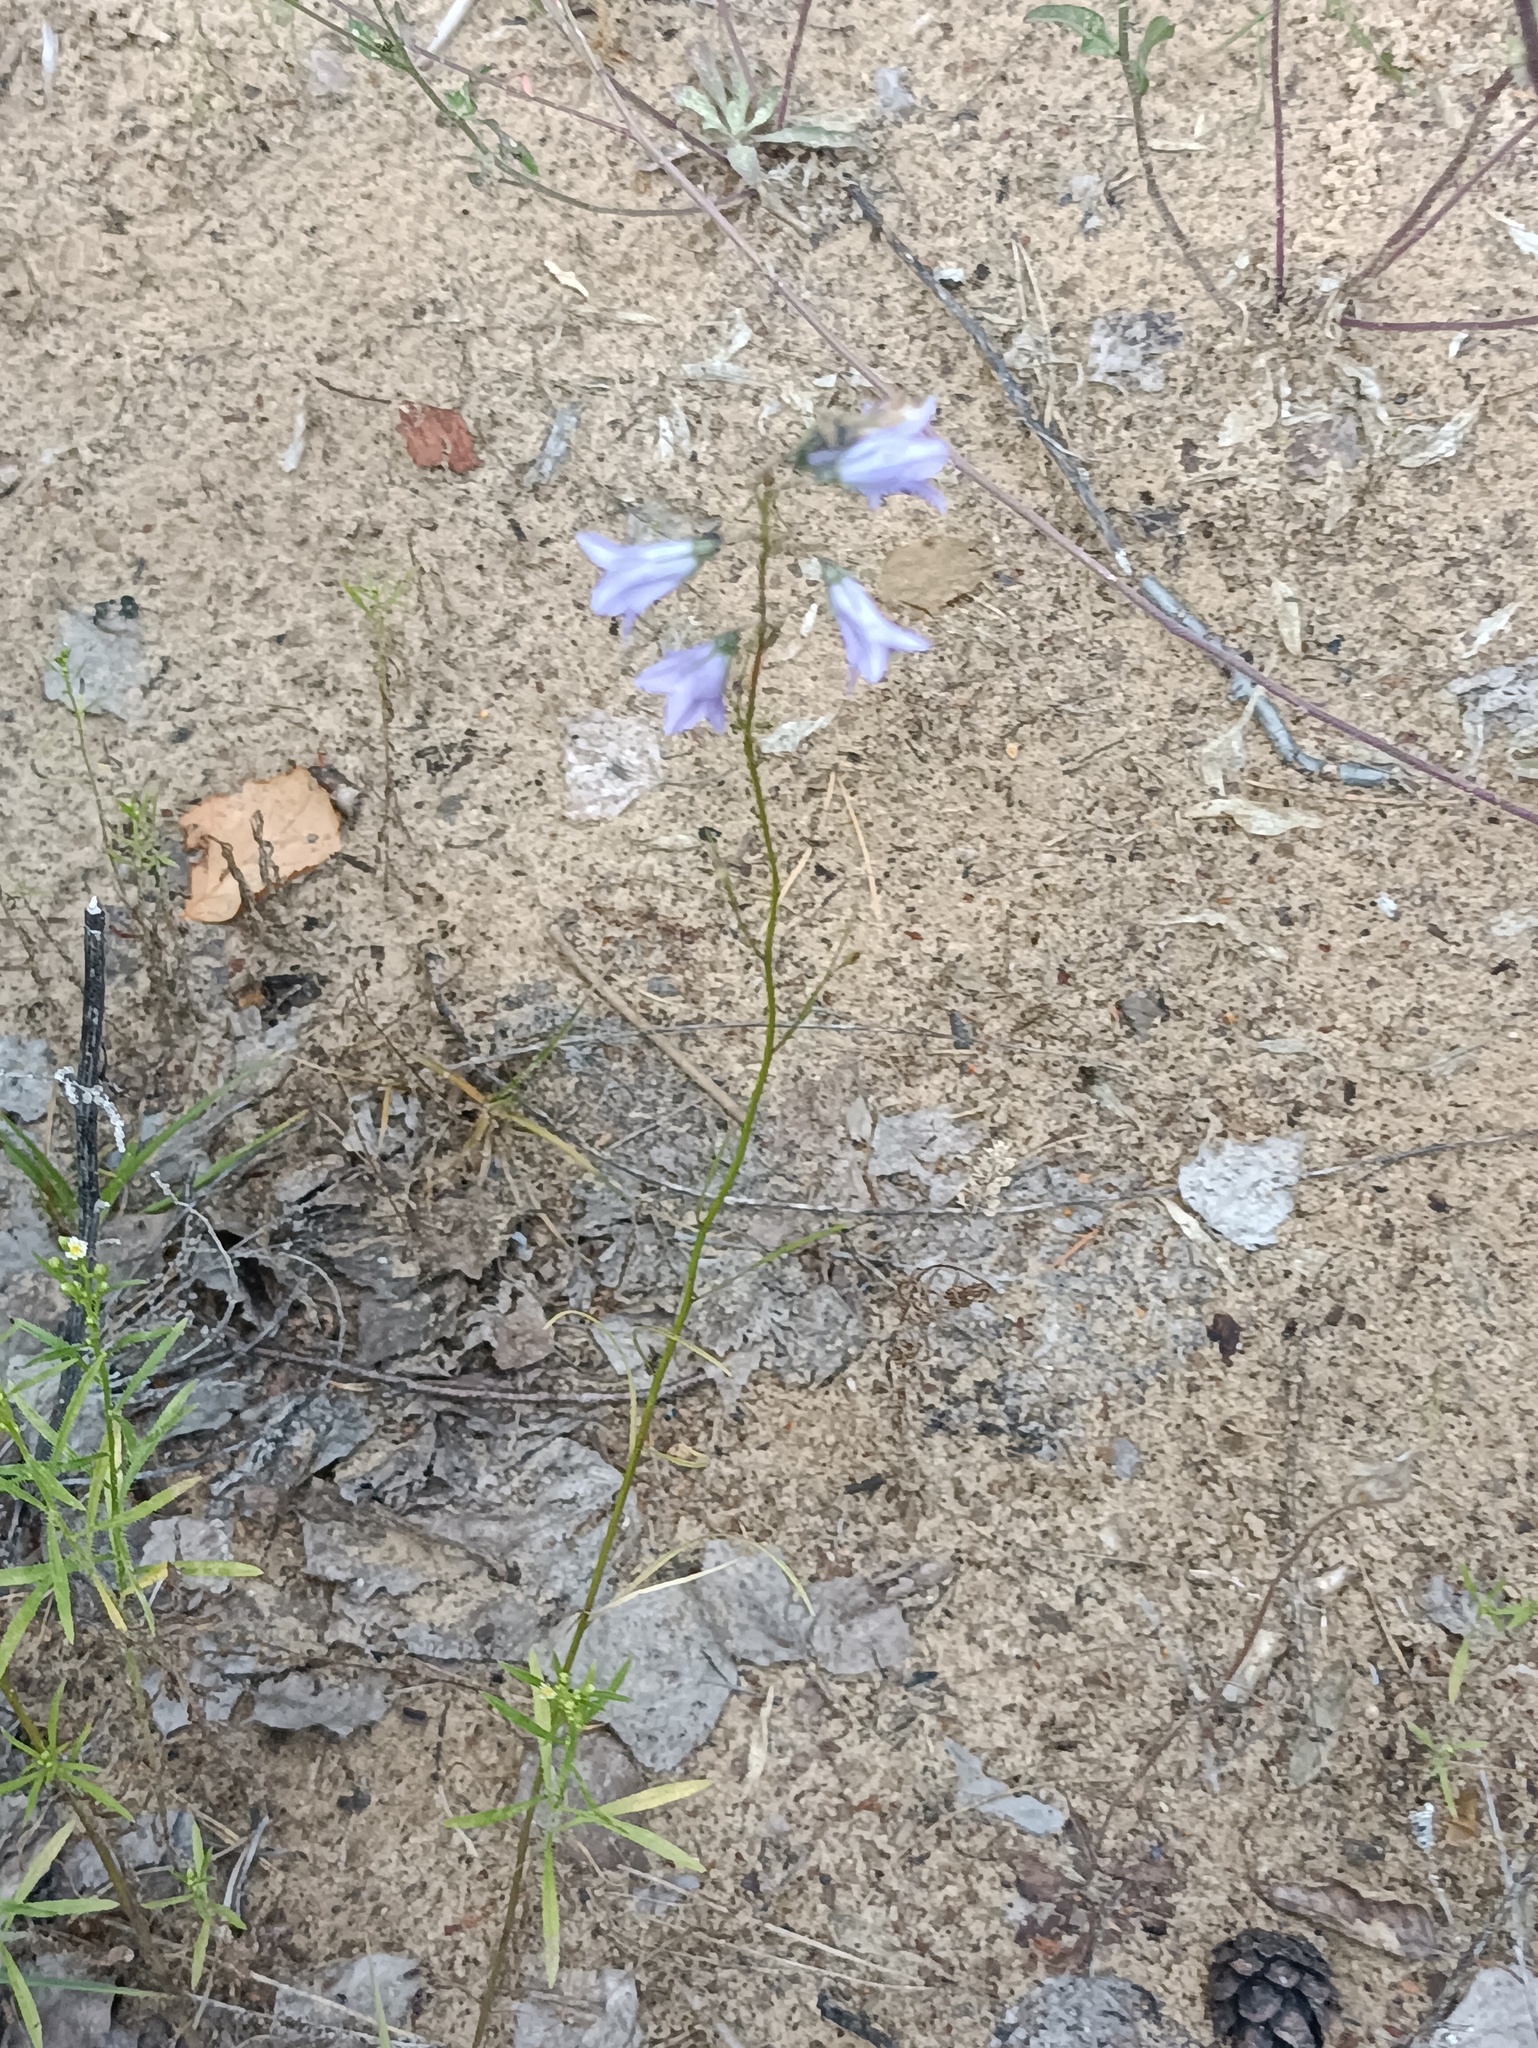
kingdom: Plantae
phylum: Tracheophyta
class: Magnoliopsida
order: Asterales
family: Campanulaceae
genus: Campanula
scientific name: Campanula rotundifolia
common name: Harebell
